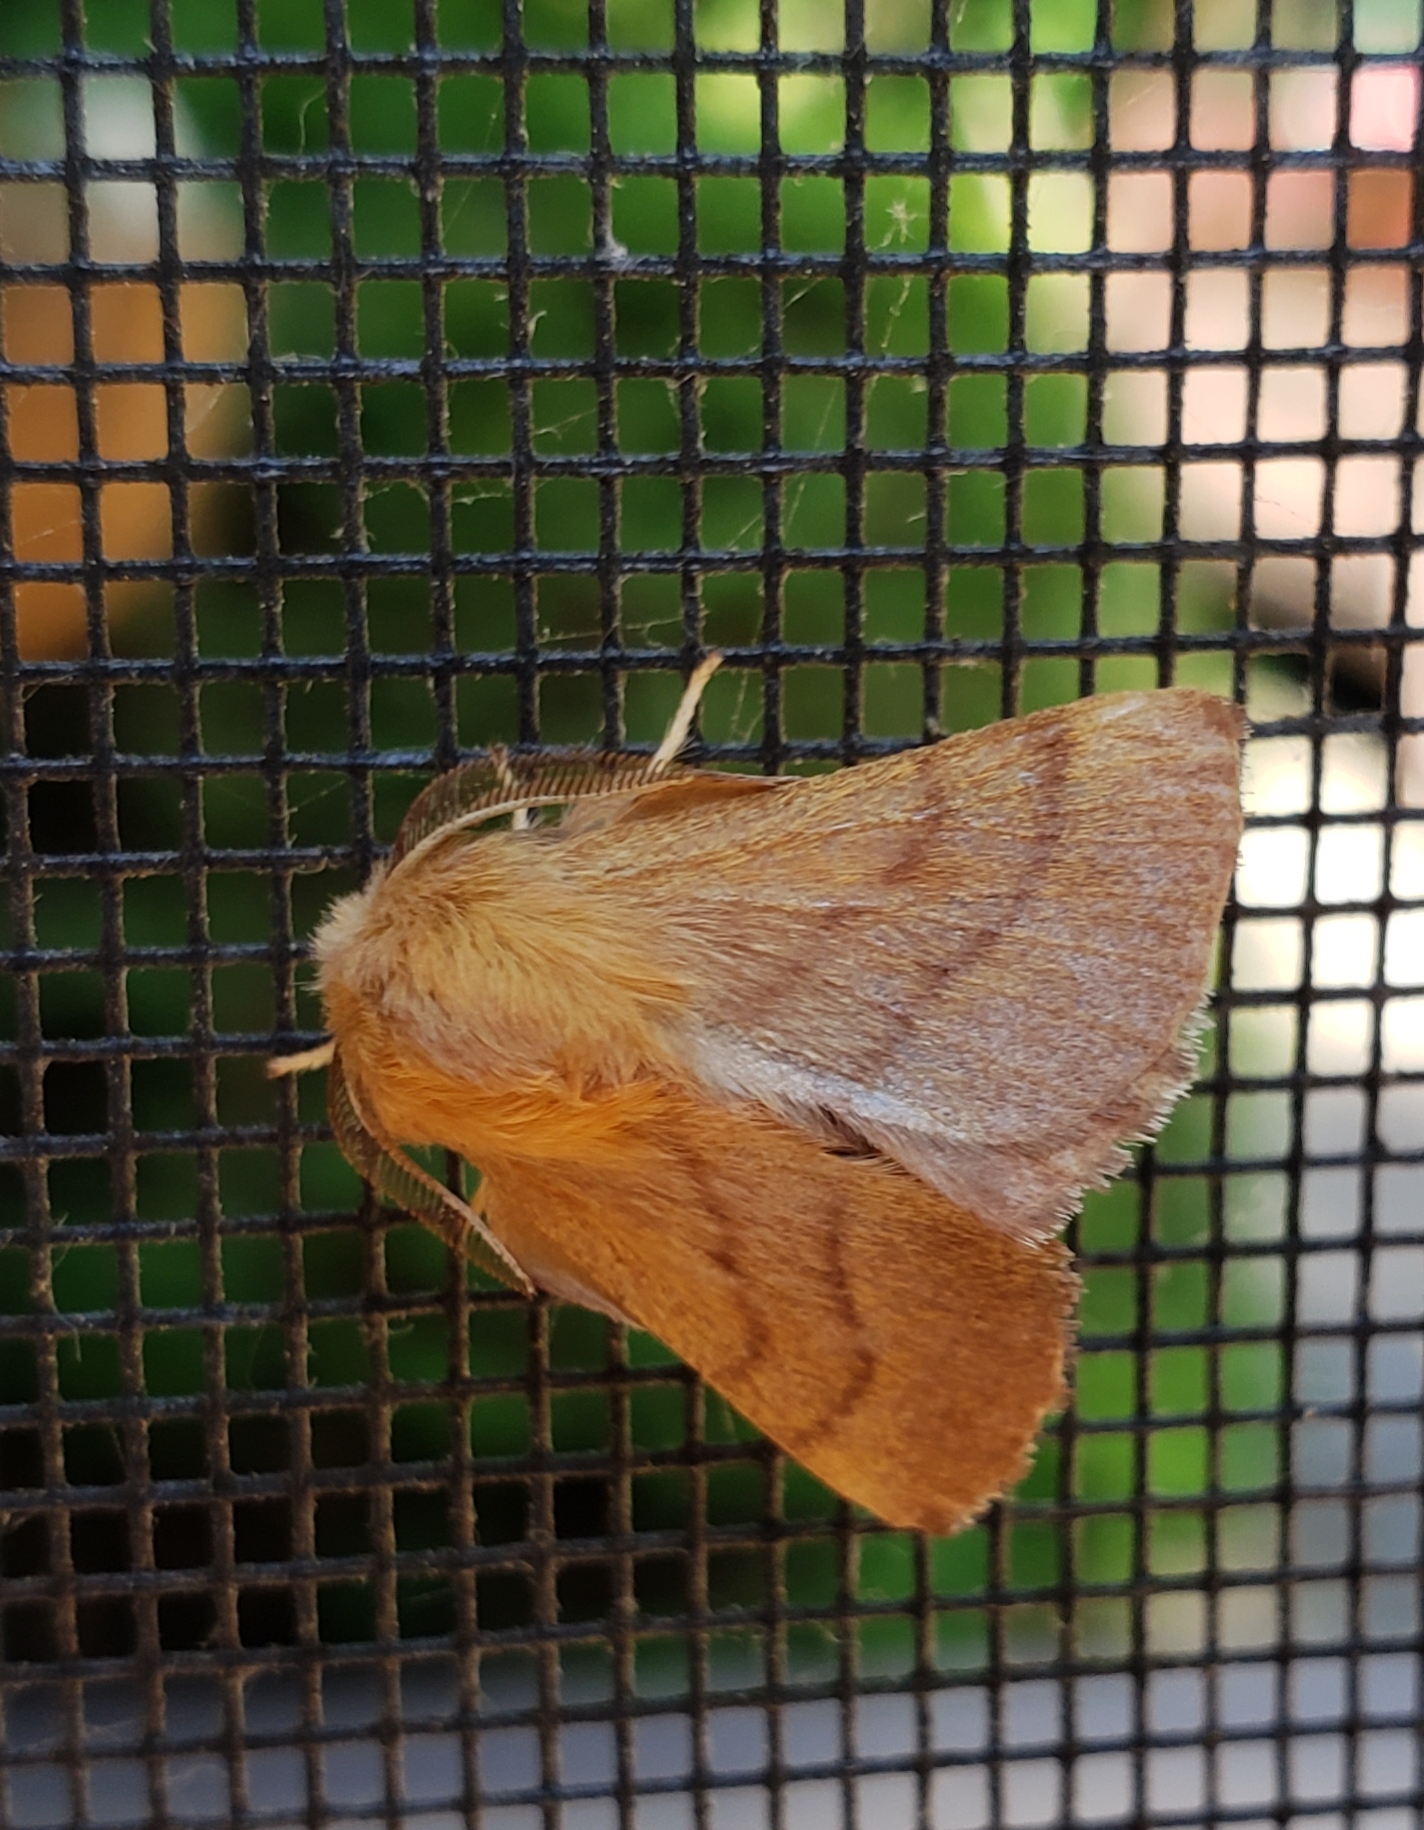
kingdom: Animalia
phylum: Arthropoda
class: Insecta
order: Lepidoptera
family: Lasiocampidae
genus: Malacosoma
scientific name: Malacosoma disstria
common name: Forest tent caterpillar
